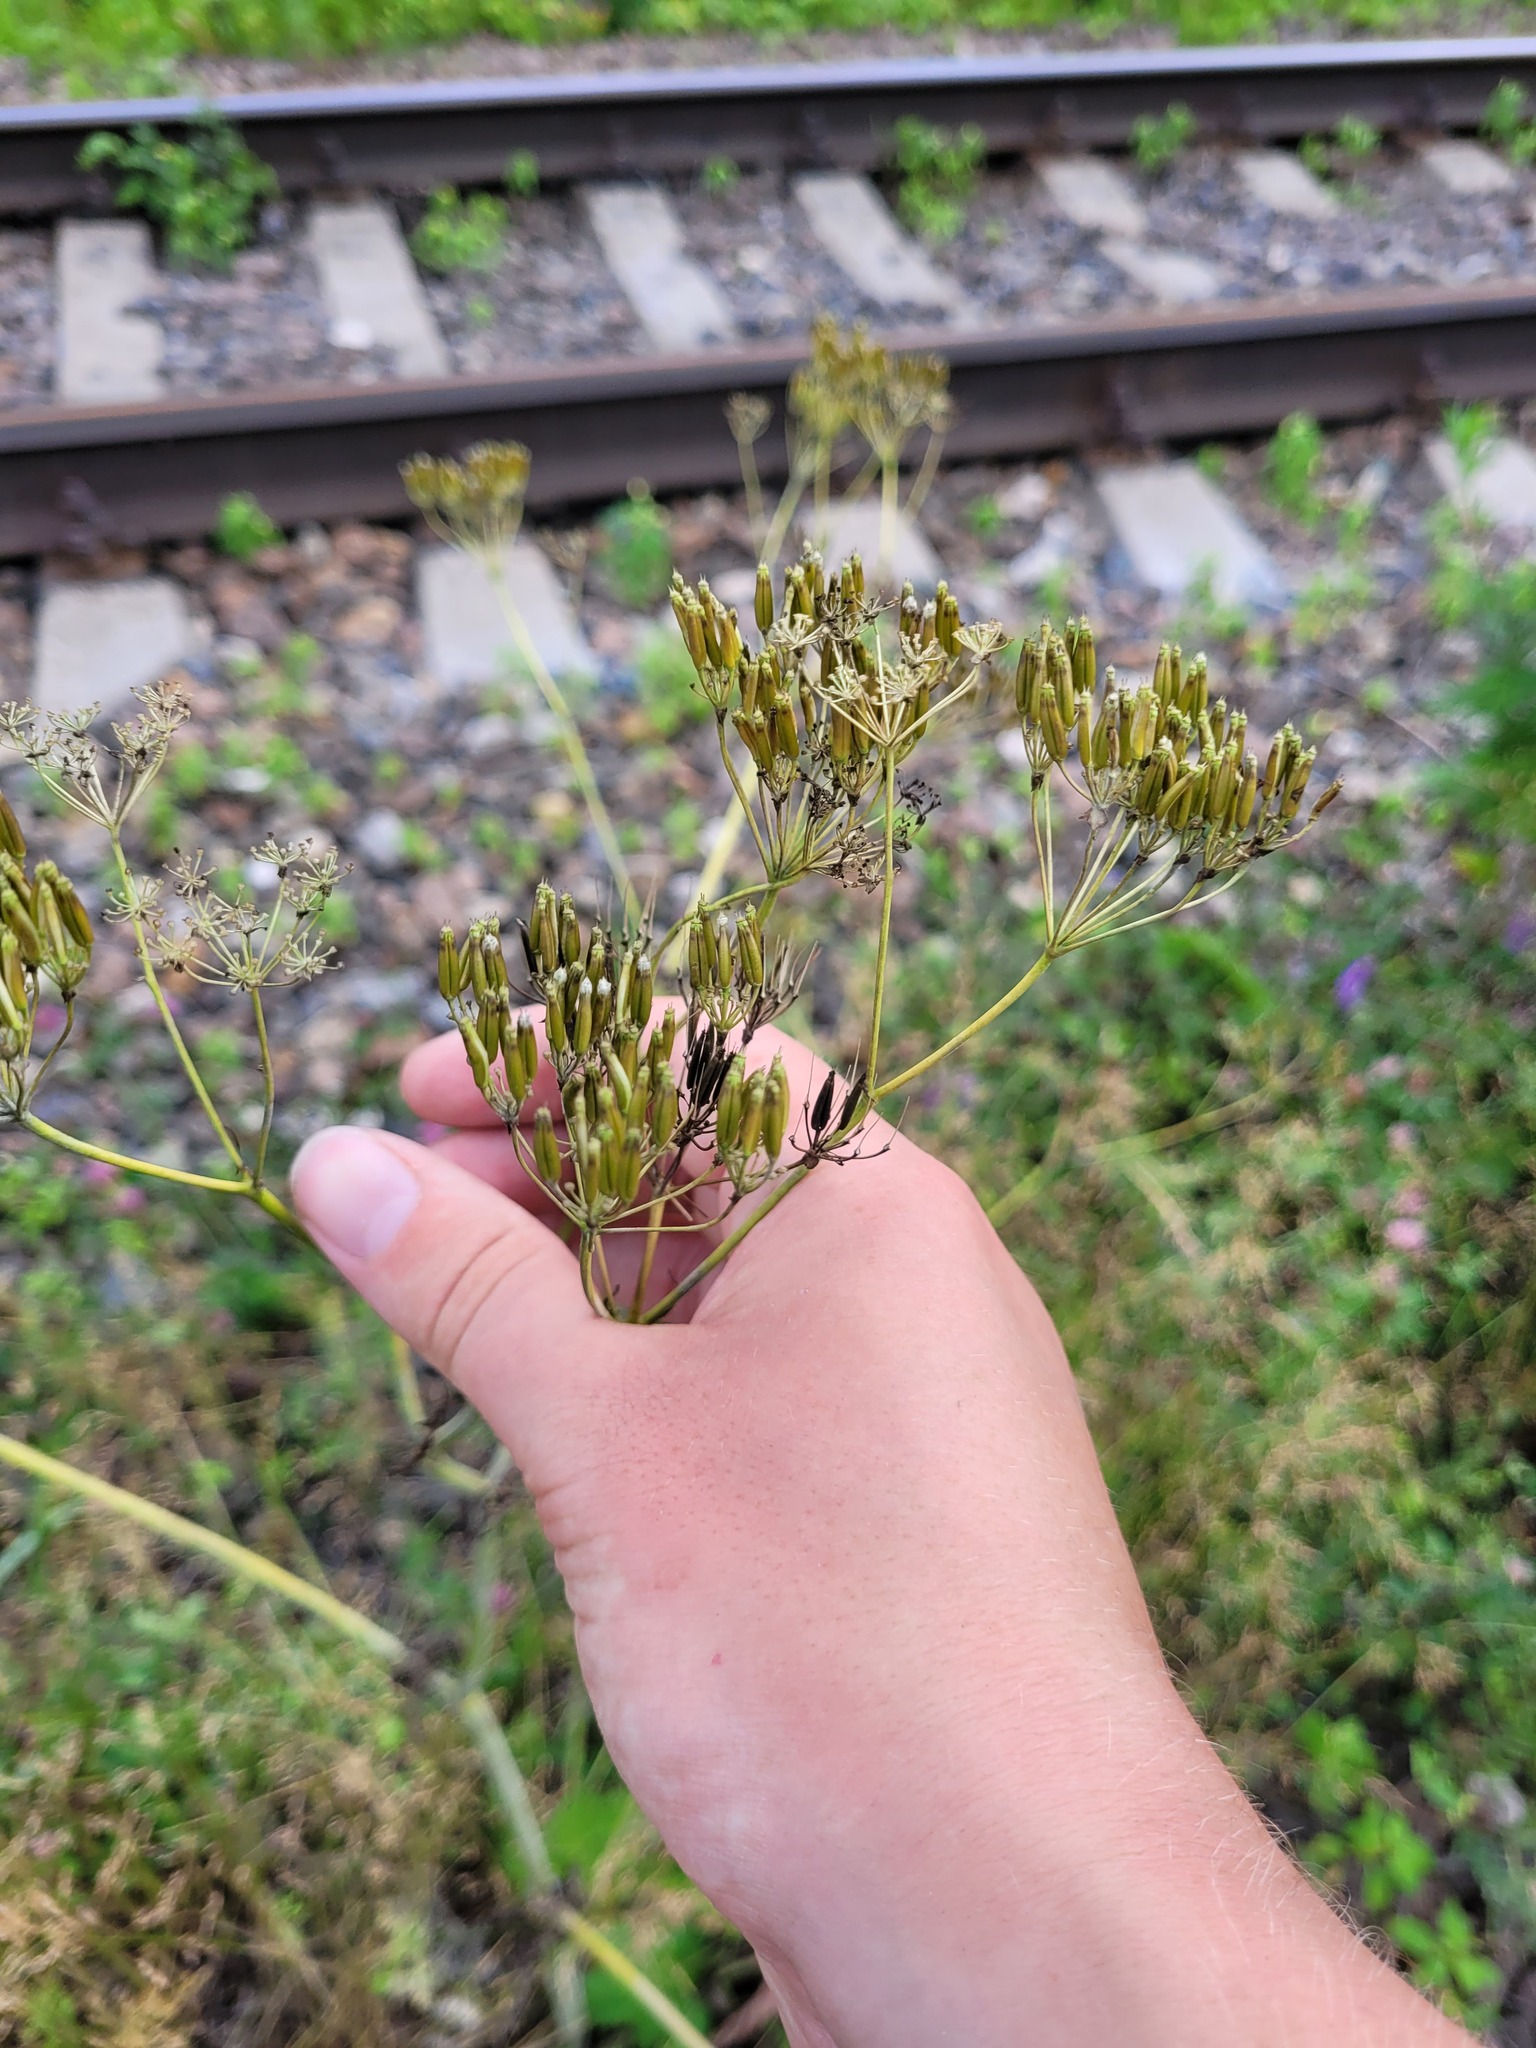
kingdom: Plantae
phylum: Tracheophyta
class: Magnoliopsida
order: Apiales
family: Apiaceae
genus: Anthriscus
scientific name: Anthriscus sylvestris
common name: Cow parsley
